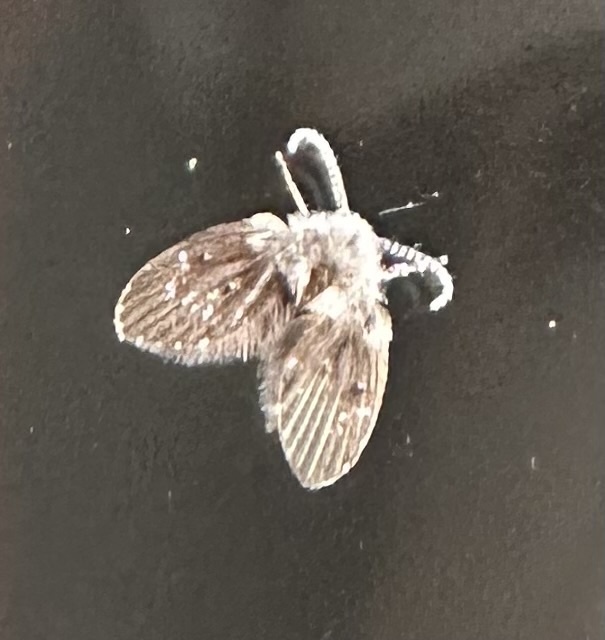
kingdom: Animalia
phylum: Arthropoda
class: Insecta
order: Diptera
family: Psychodidae
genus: Clogmia
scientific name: Clogmia albipunctatus
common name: White-spotted moth fly
